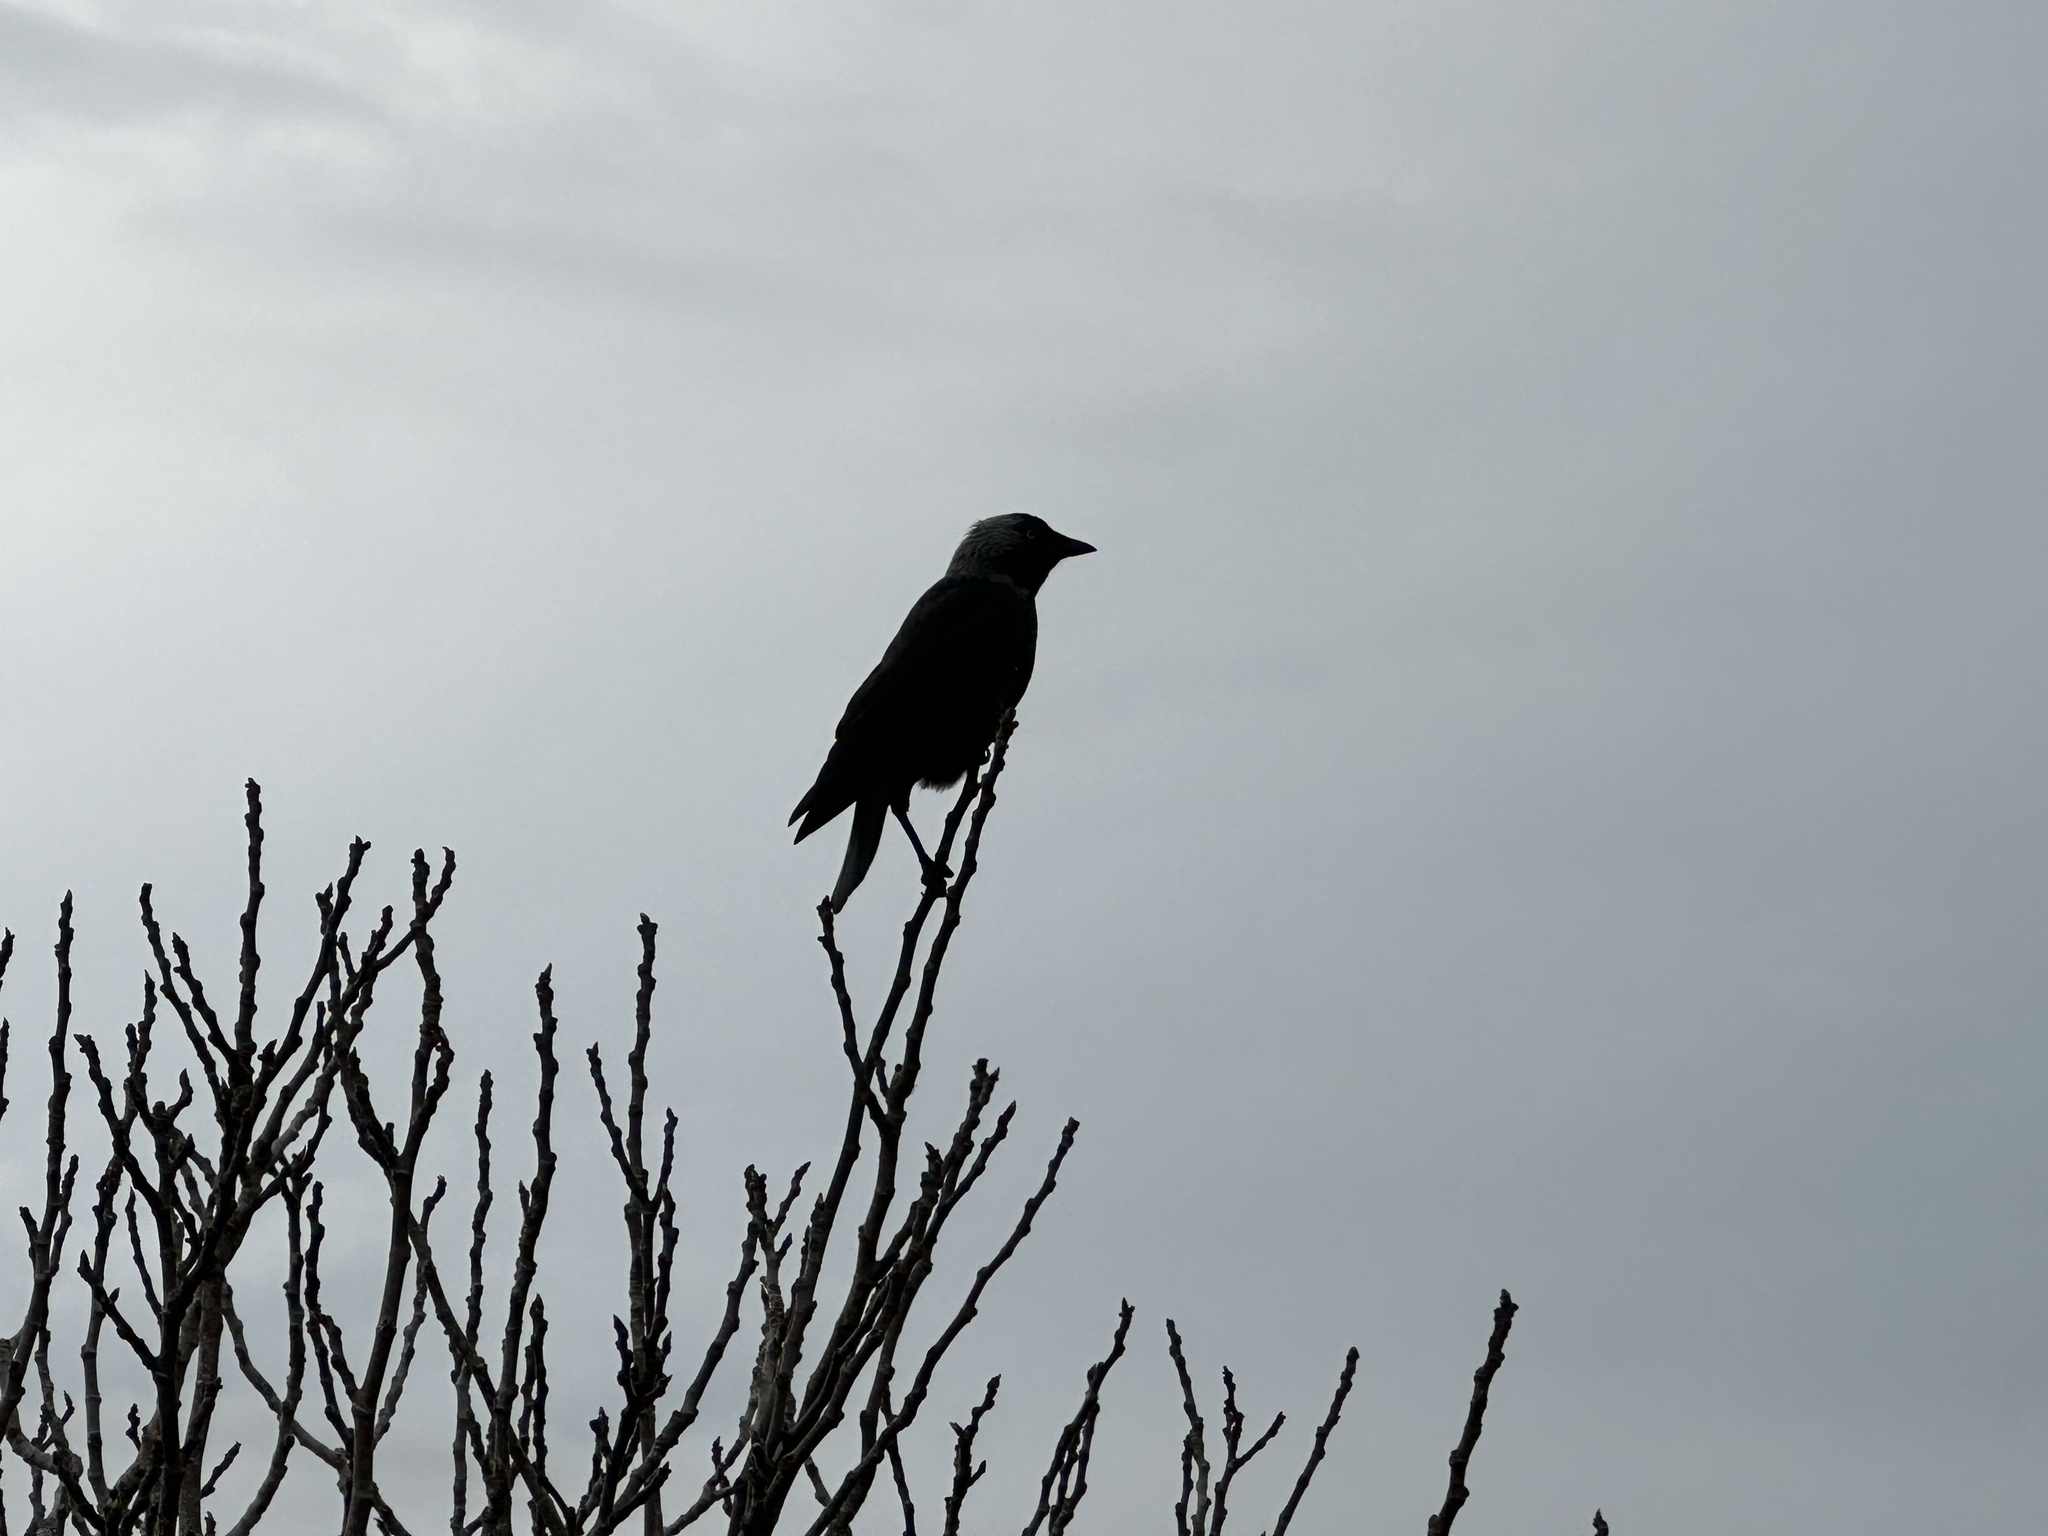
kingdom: Animalia
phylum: Chordata
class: Aves
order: Passeriformes
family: Corvidae
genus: Coloeus
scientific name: Coloeus monedula
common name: Western jackdaw
